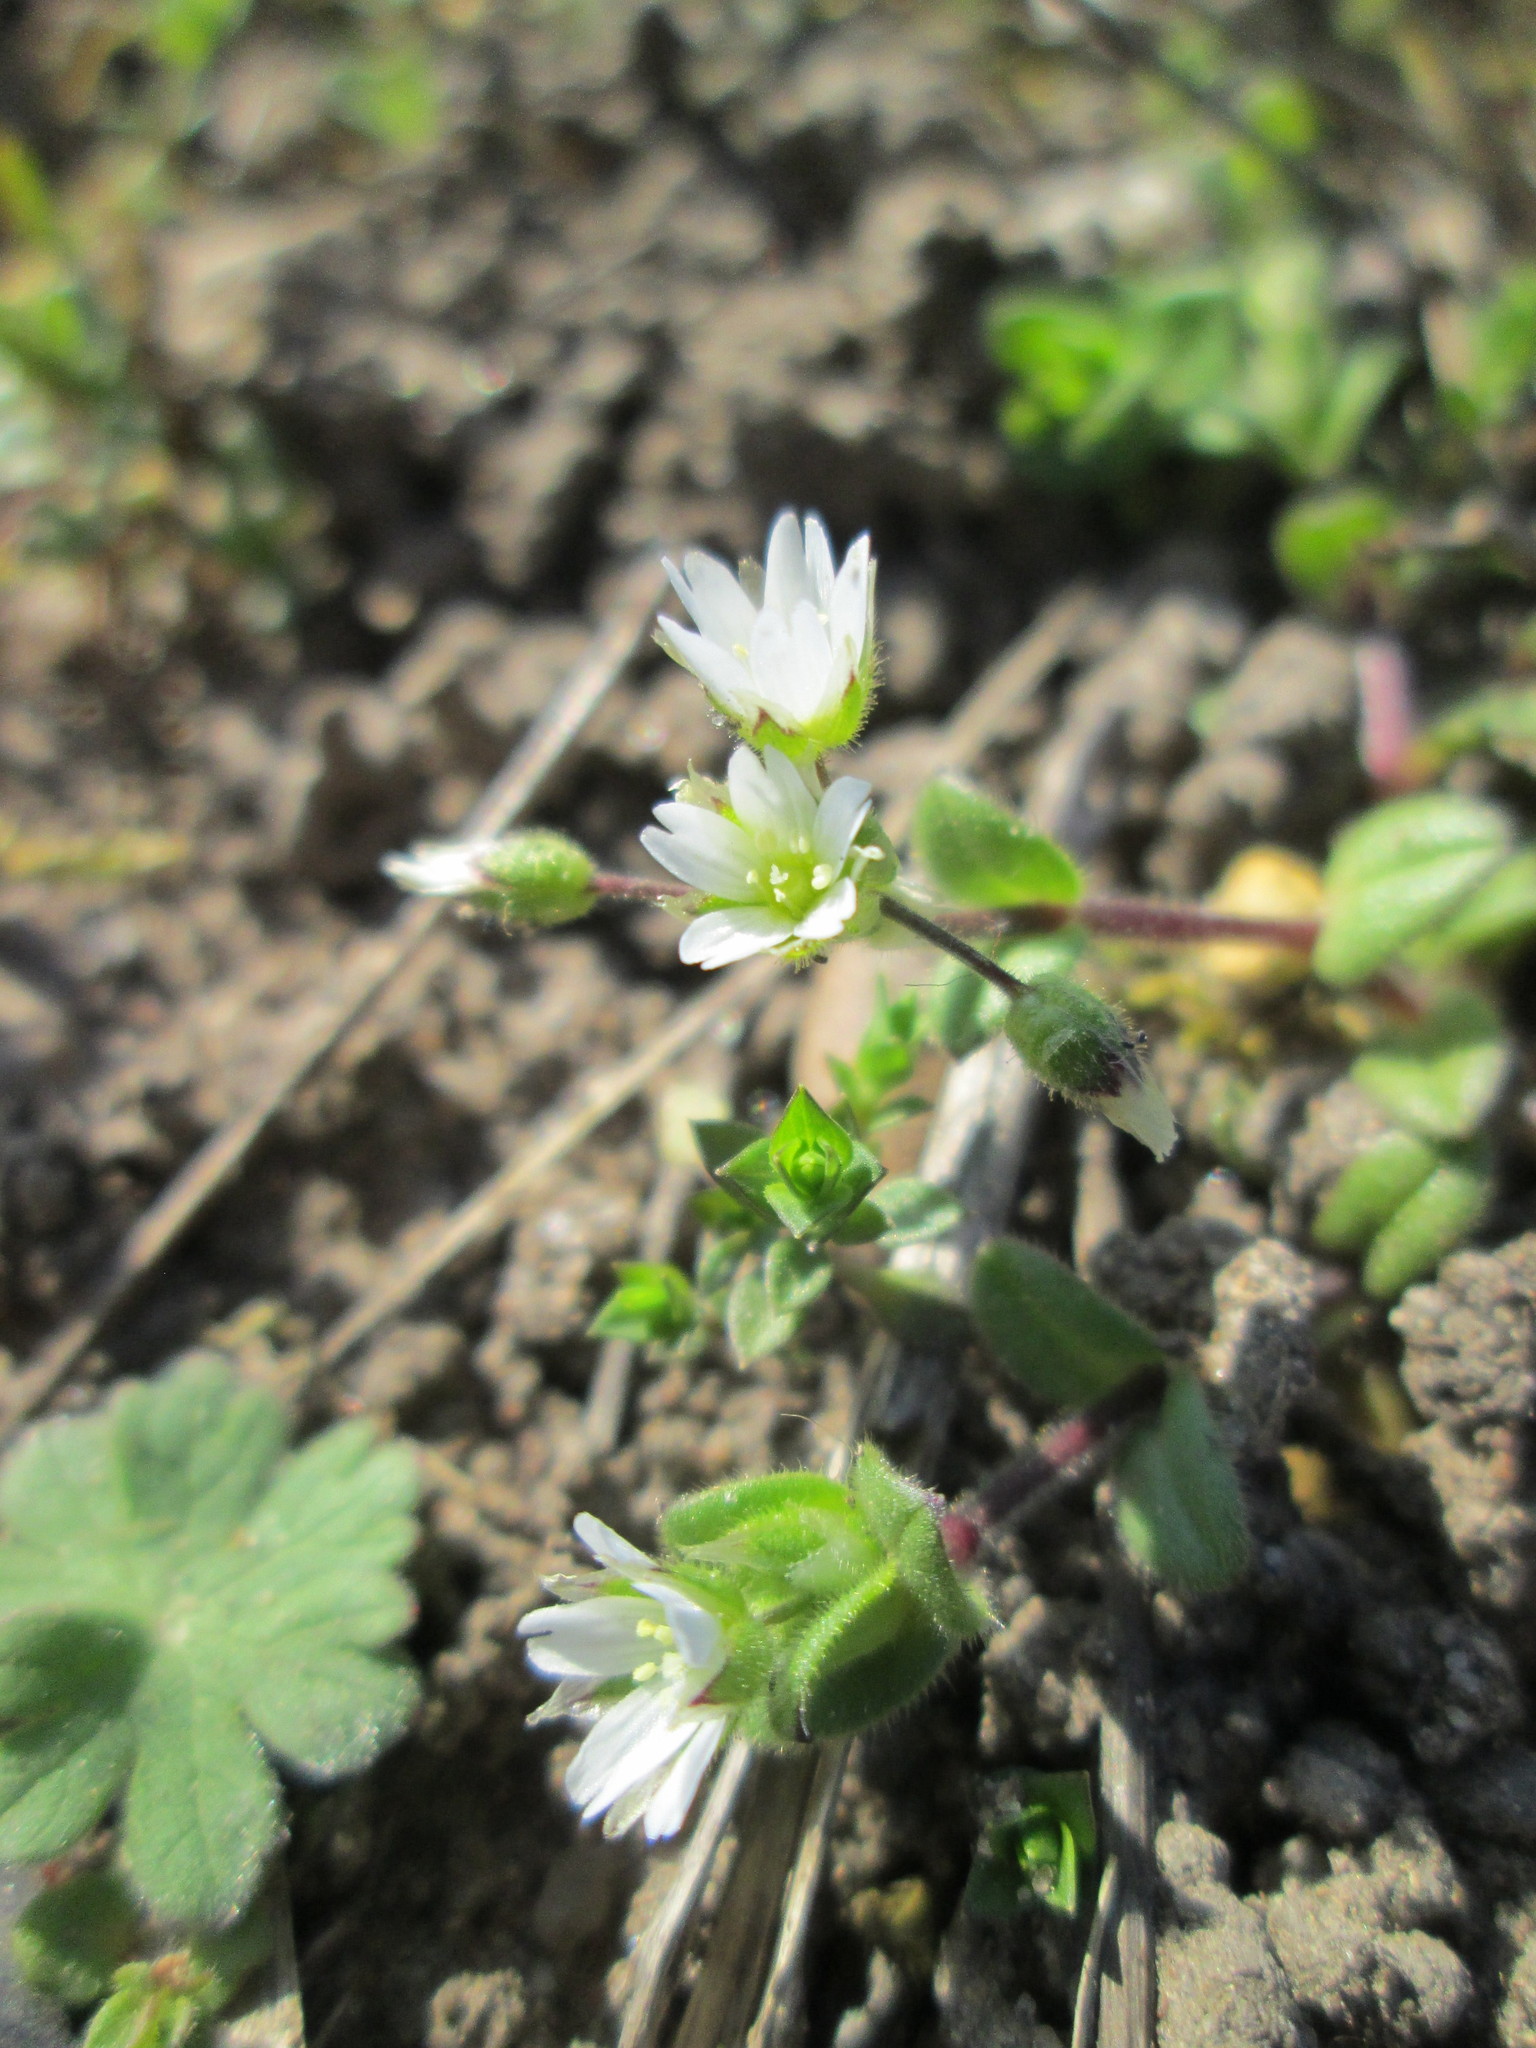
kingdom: Plantae
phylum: Tracheophyta
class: Magnoliopsida
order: Caryophyllales
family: Caryophyllaceae
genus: Cerastium
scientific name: Cerastium semidecandrum
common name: Little mouse-ear
